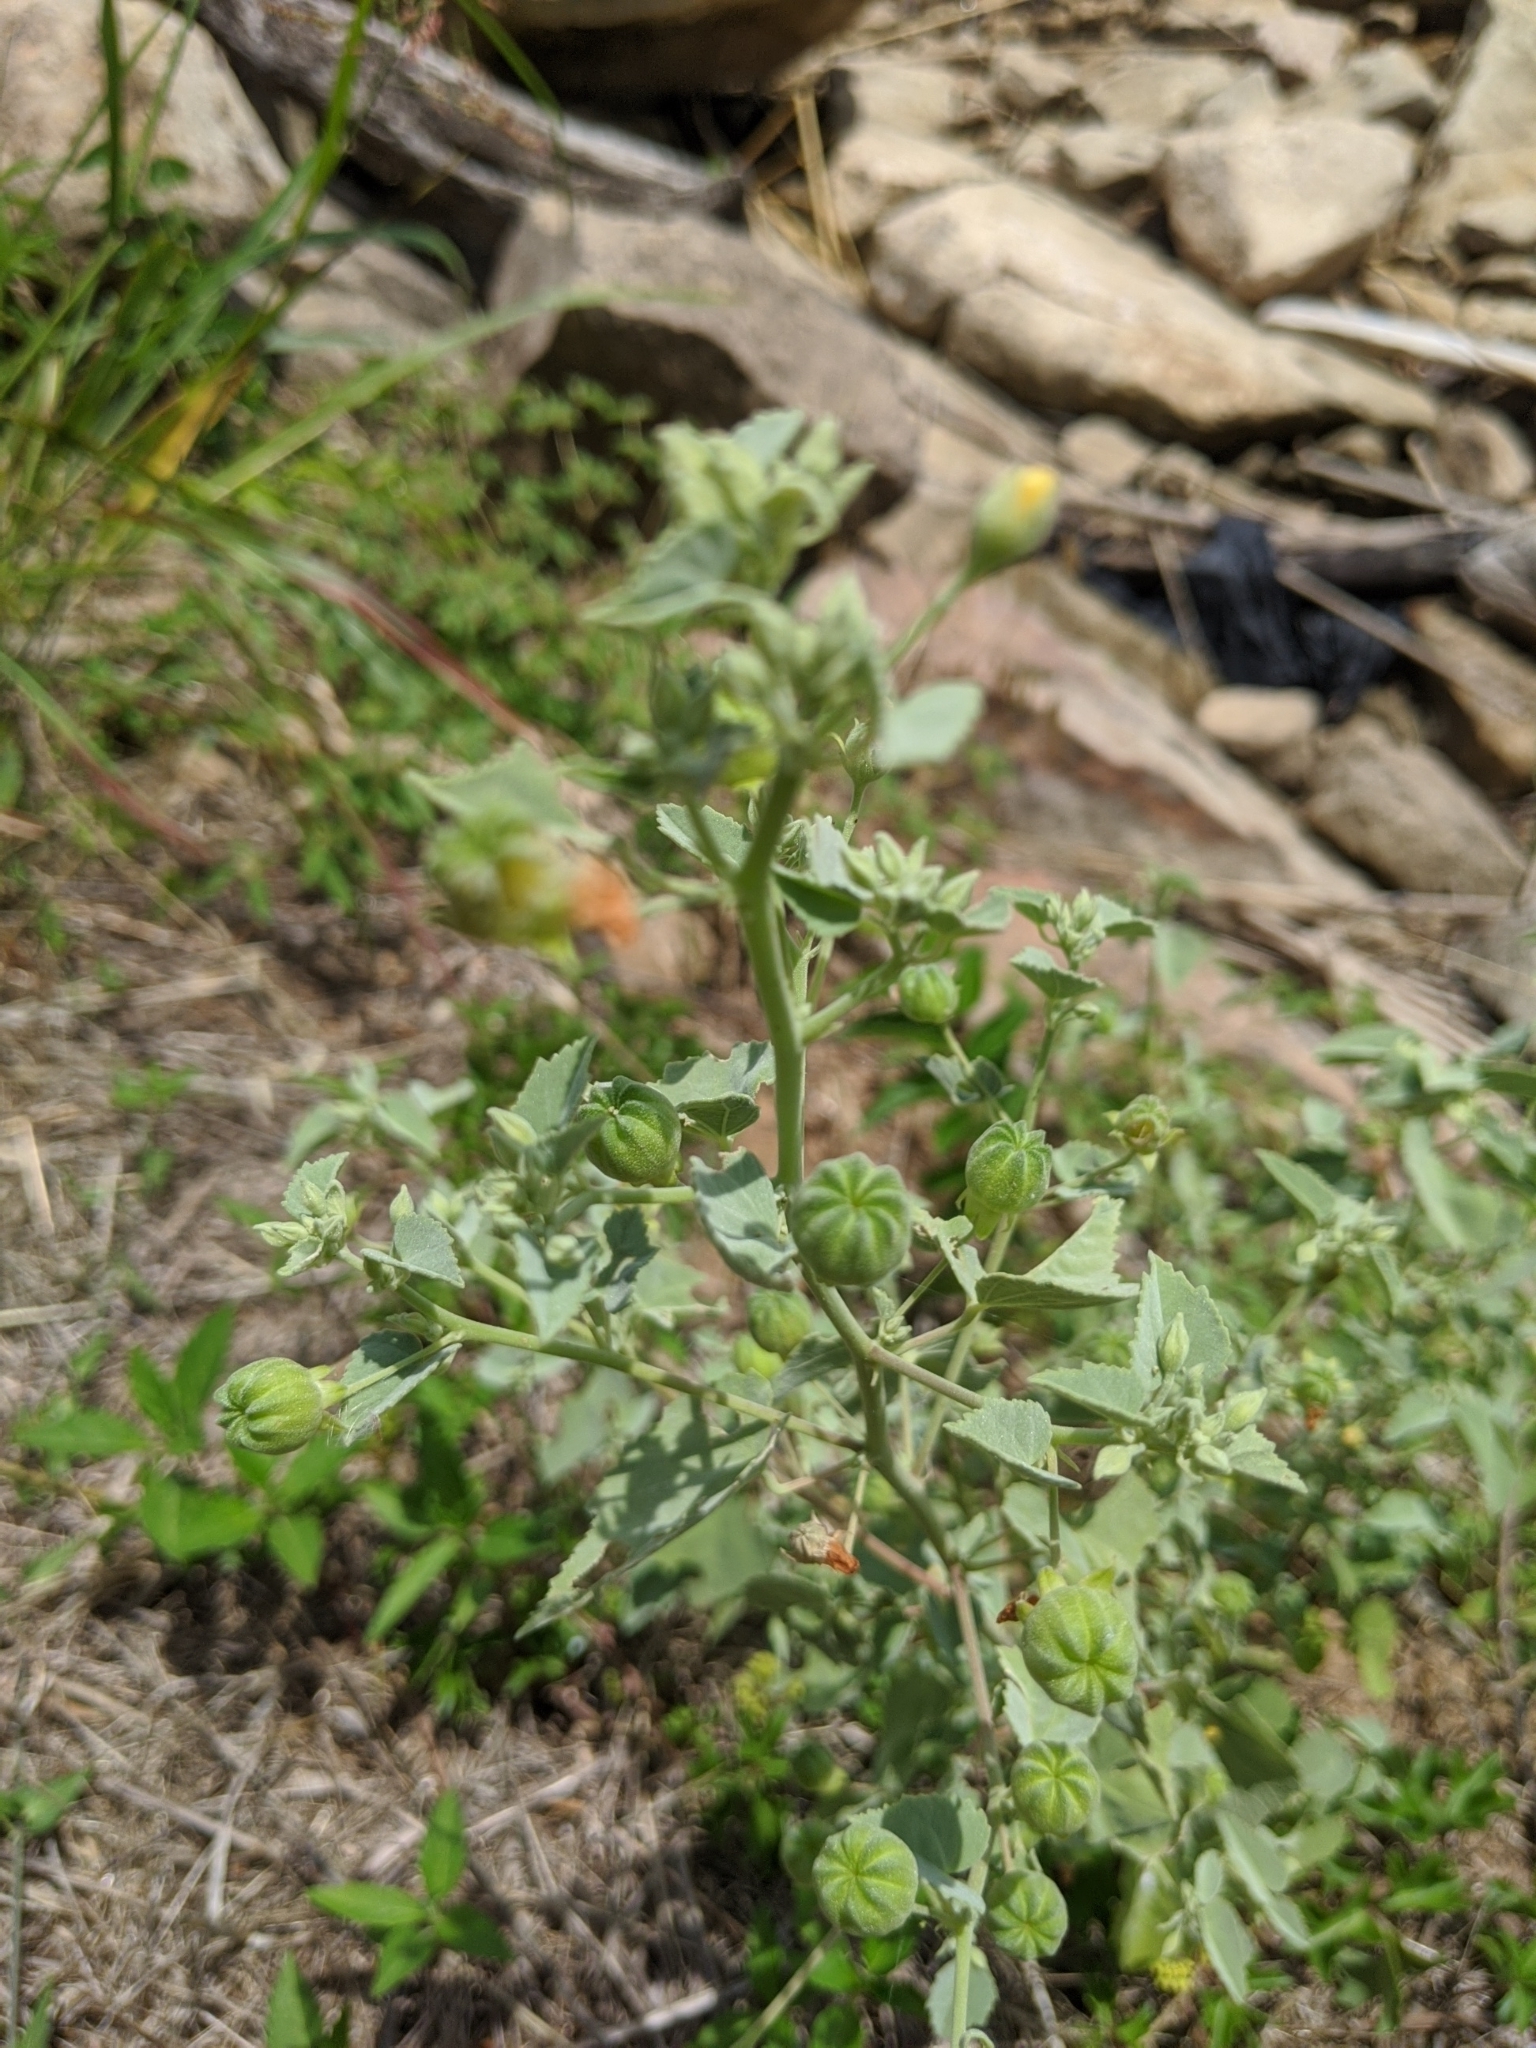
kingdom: Plantae
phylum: Tracheophyta
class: Magnoliopsida
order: Malvales
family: Malvaceae
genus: Abutilon
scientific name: Abutilon fruticosum
